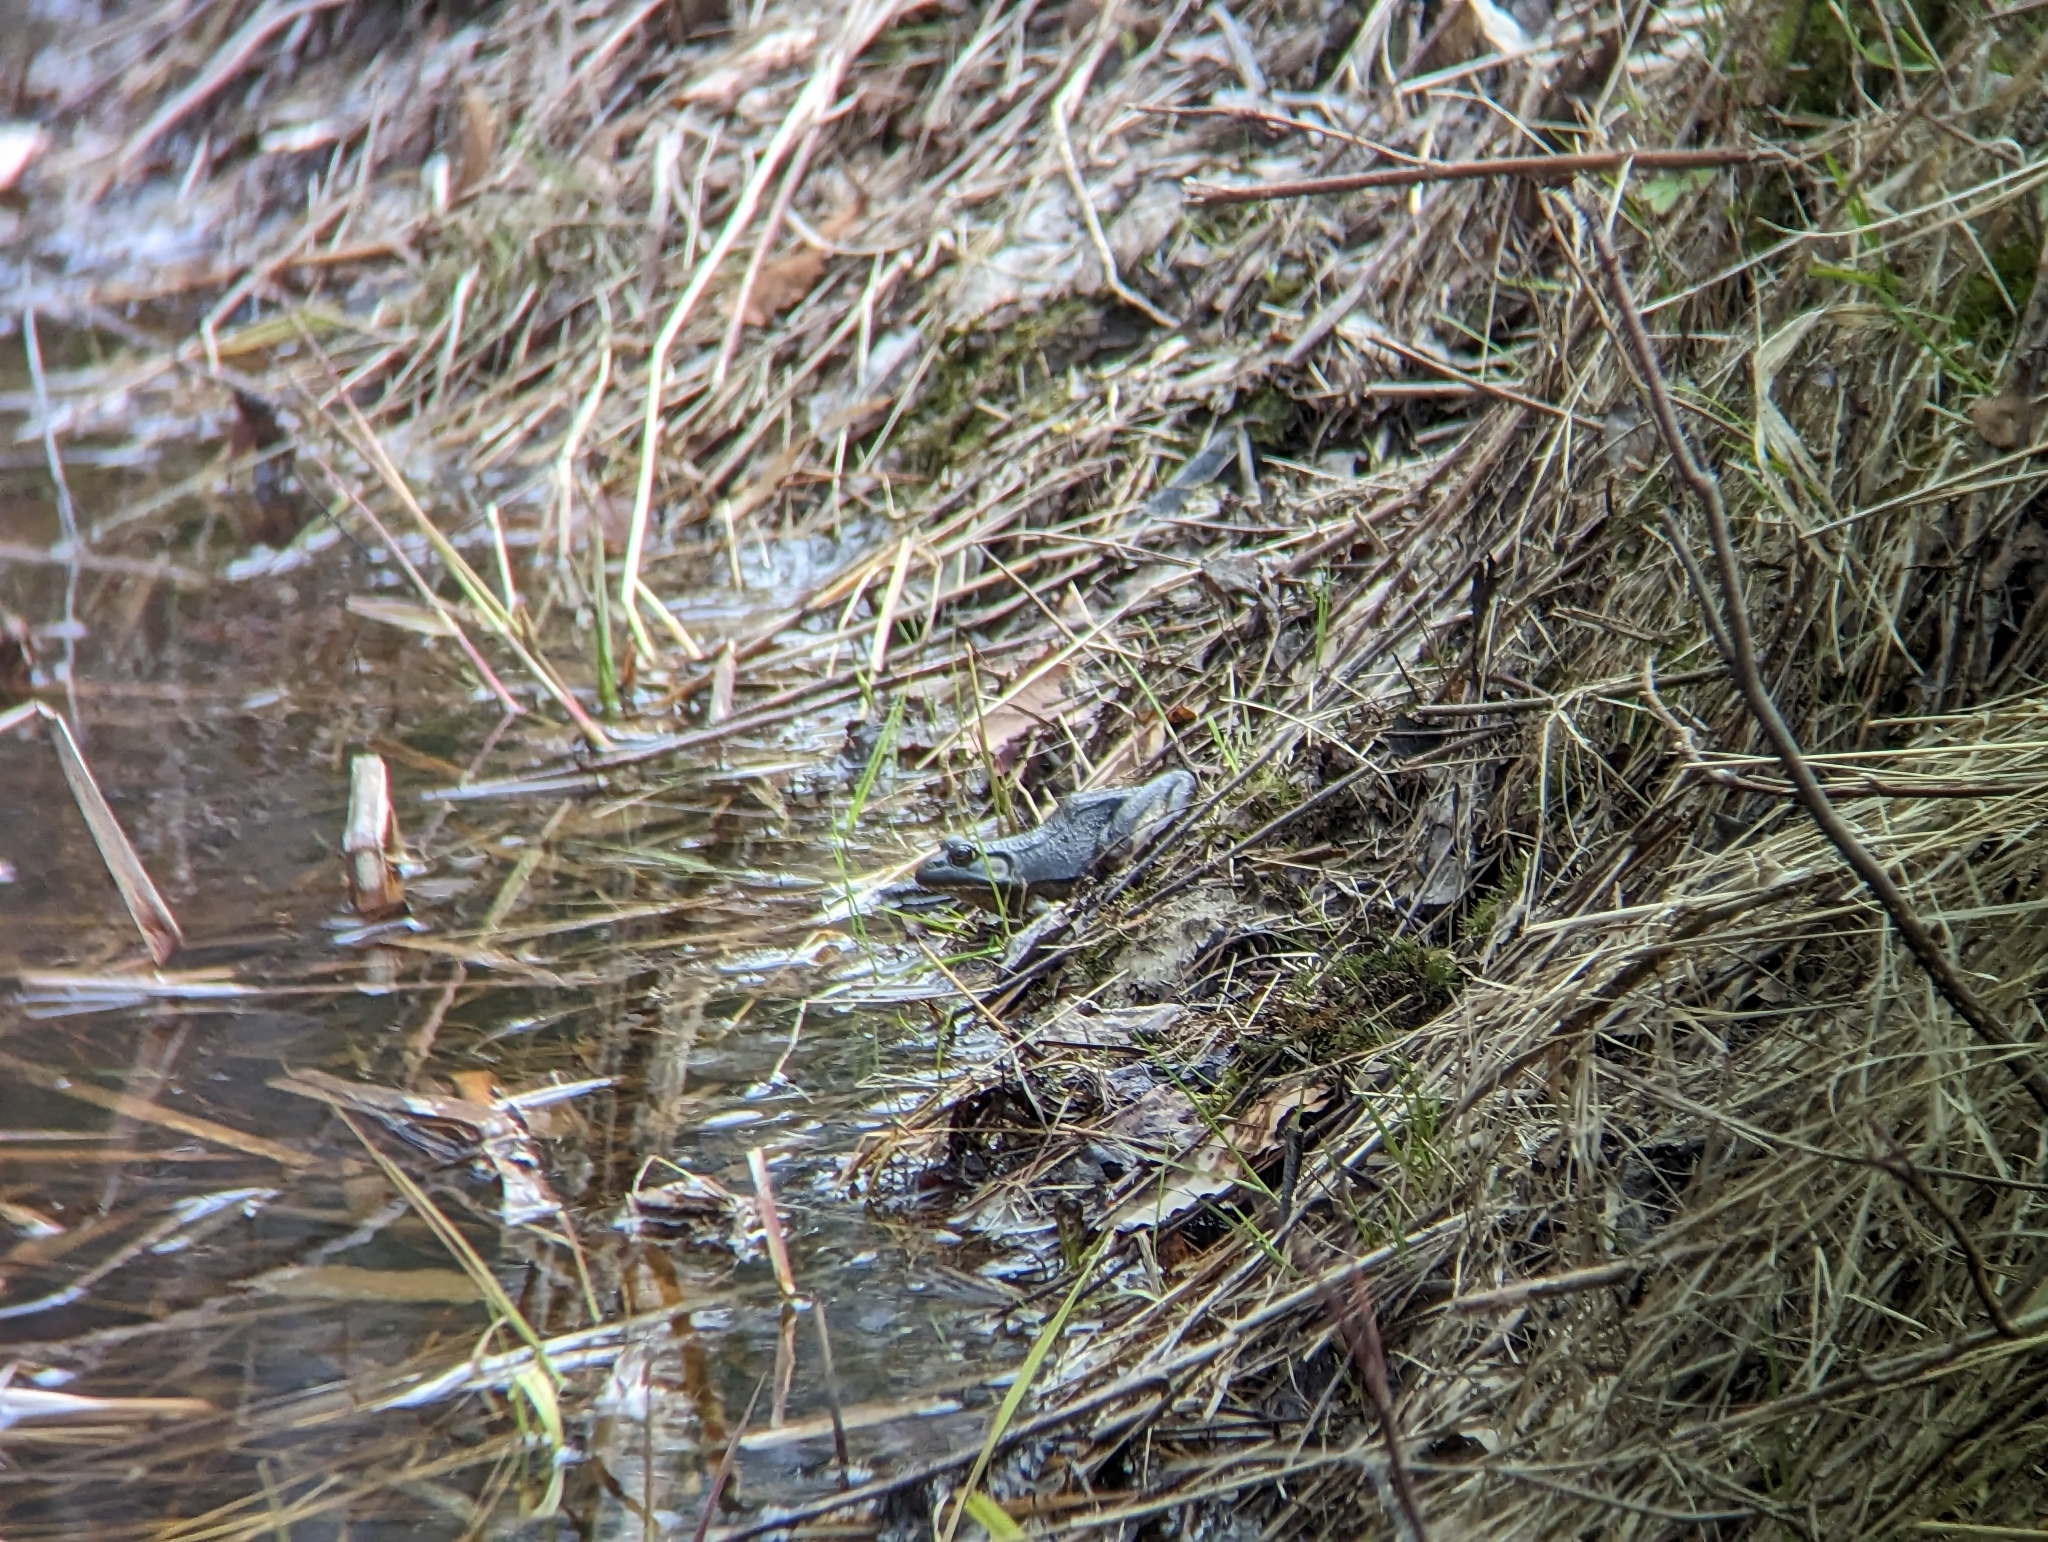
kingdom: Animalia
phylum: Chordata
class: Amphibia
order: Anura
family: Ranidae
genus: Lithobates
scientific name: Lithobates clamitans
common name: Green frog
